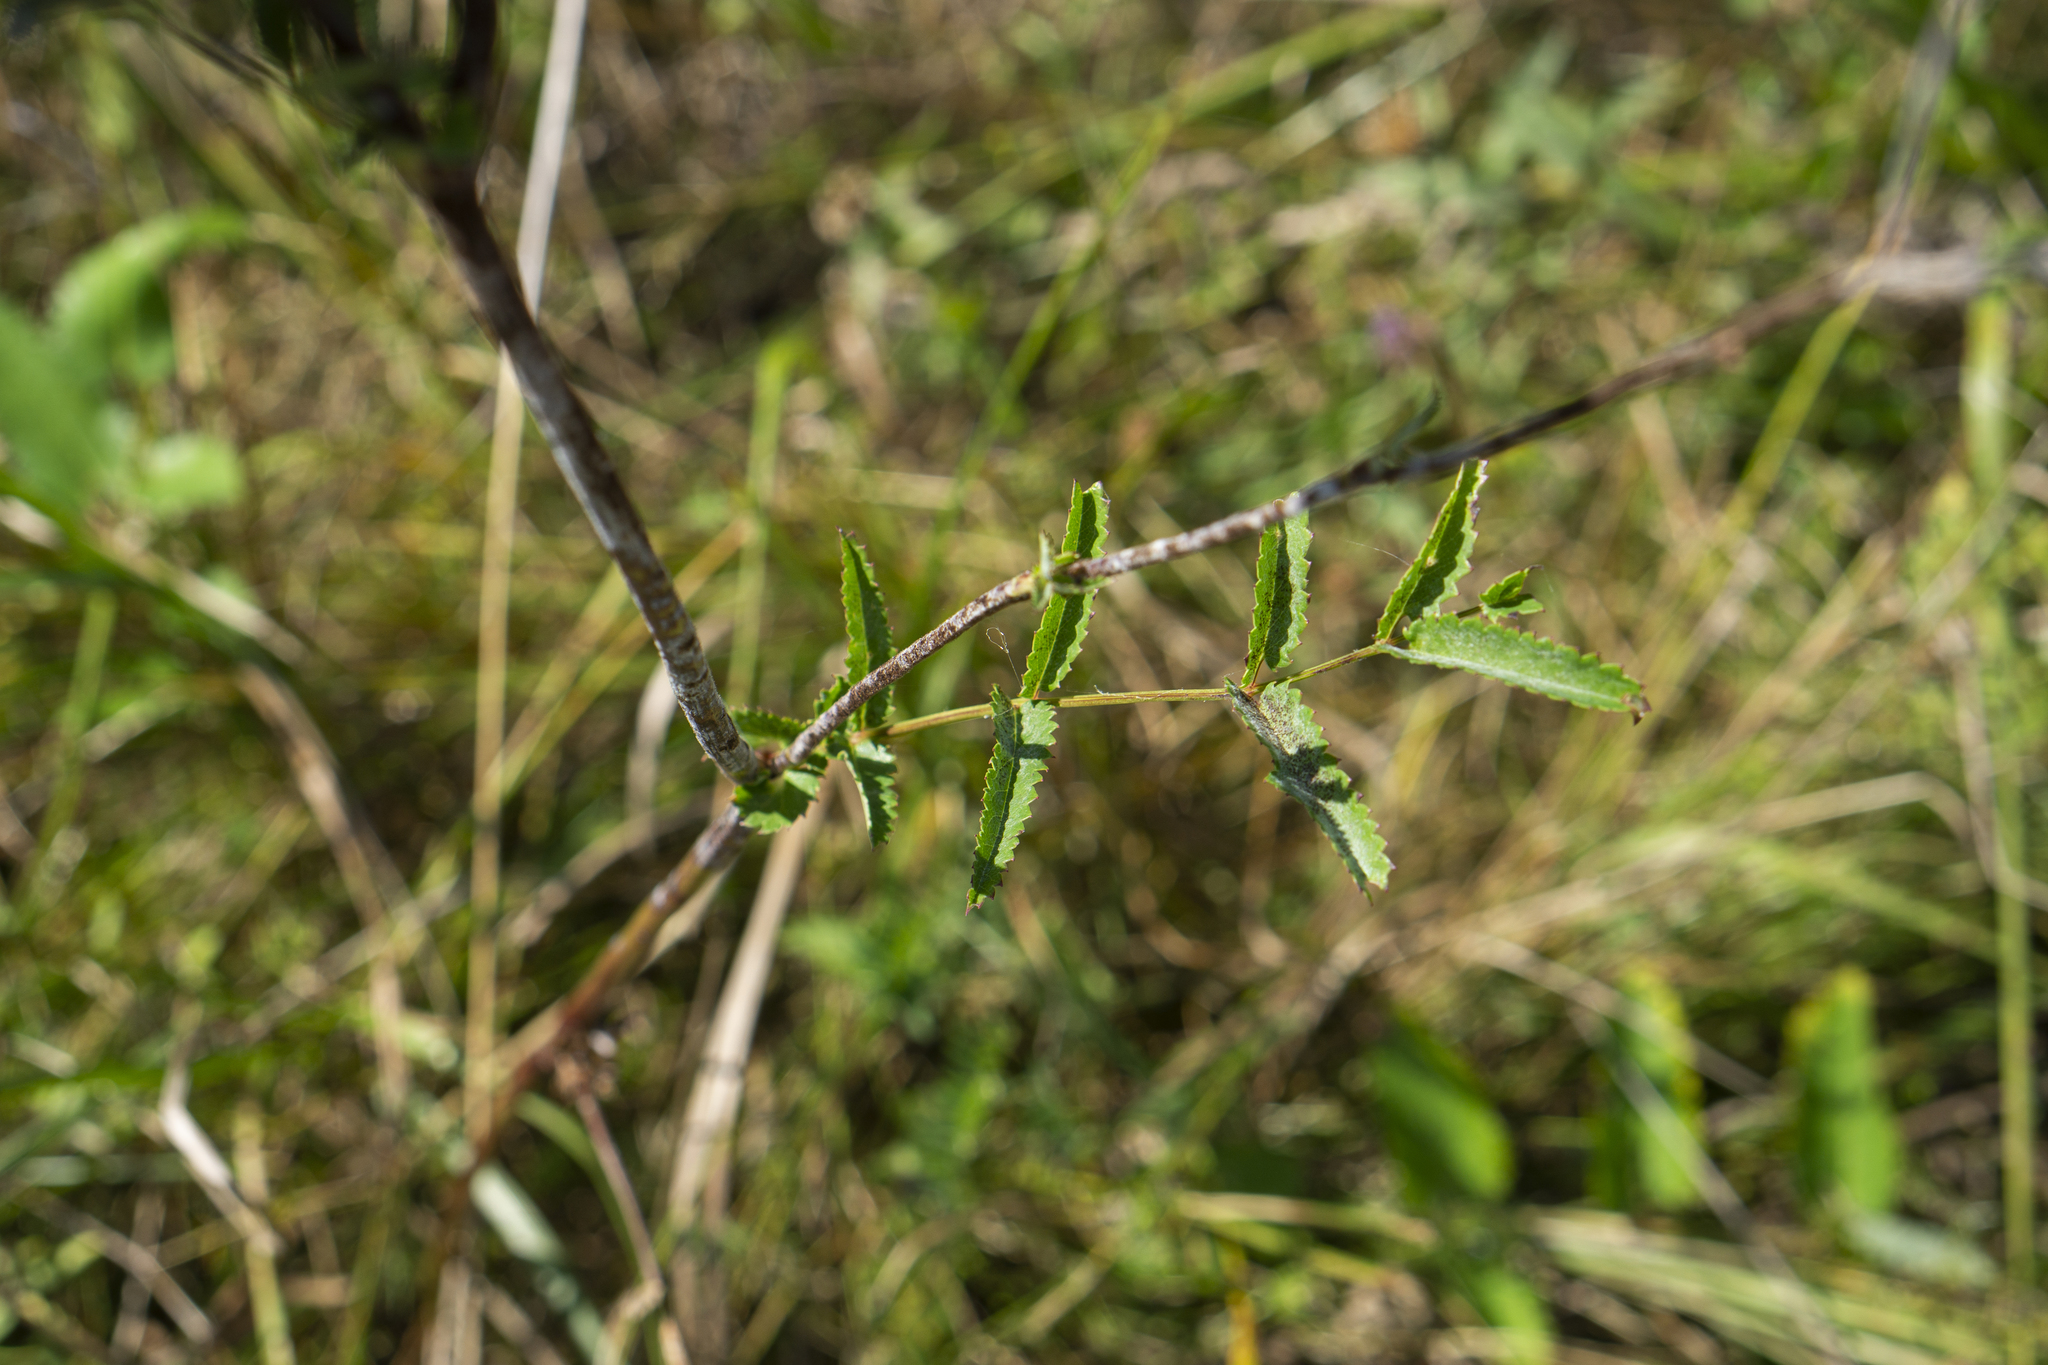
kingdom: Plantae
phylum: Tracheophyta
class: Magnoliopsida
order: Rosales
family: Rosaceae
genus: Sanguisorba
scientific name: Sanguisorba officinalis
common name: Great burnet
